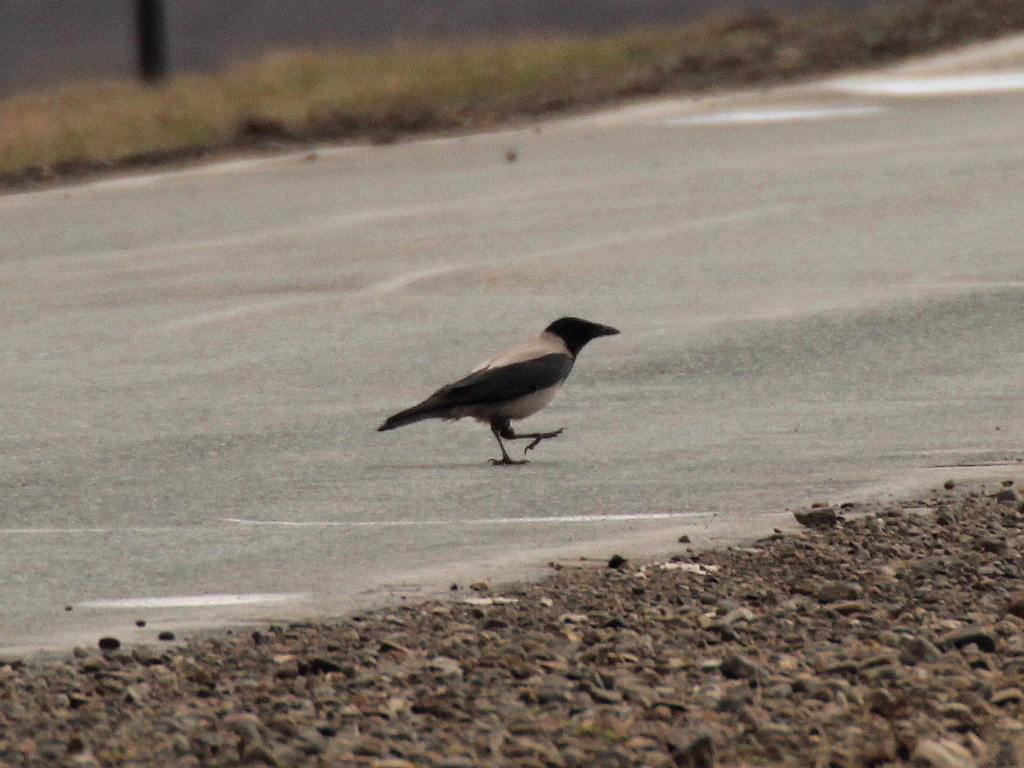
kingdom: Animalia
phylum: Chordata
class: Aves
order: Passeriformes
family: Corvidae
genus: Corvus
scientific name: Corvus cornix
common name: Hooded crow
